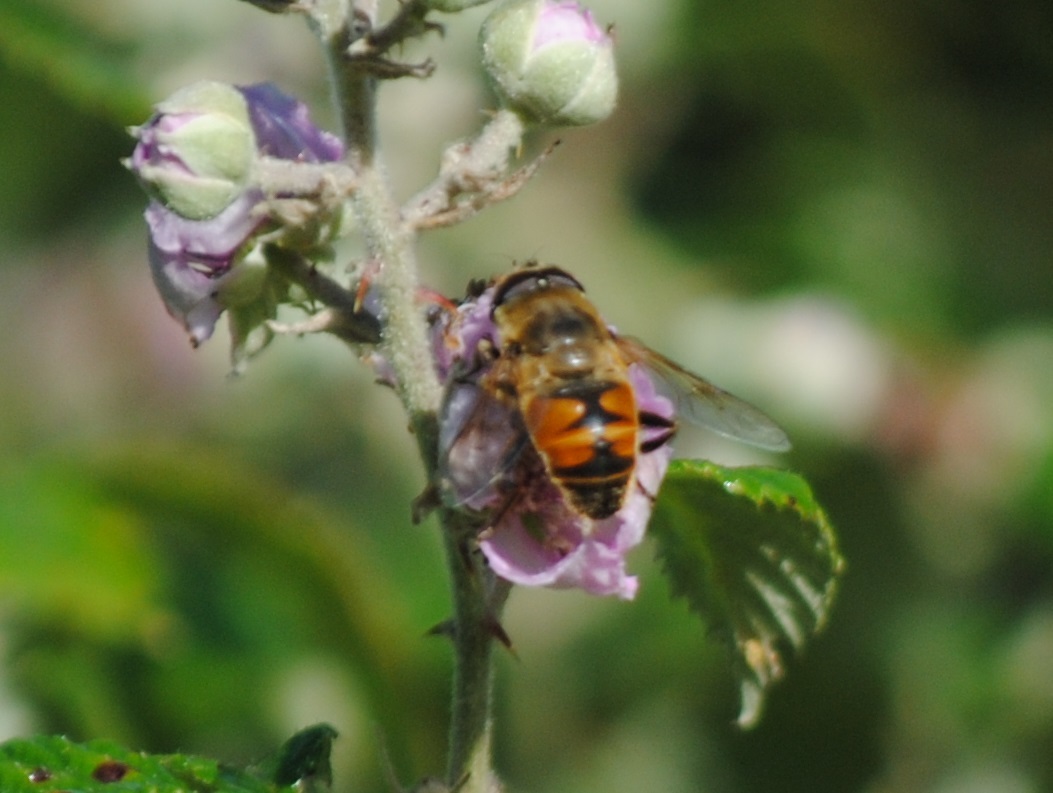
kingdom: Animalia
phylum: Arthropoda
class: Insecta
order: Diptera
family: Syrphidae
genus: Eristalis
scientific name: Eristalis tenax
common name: Drone fly
